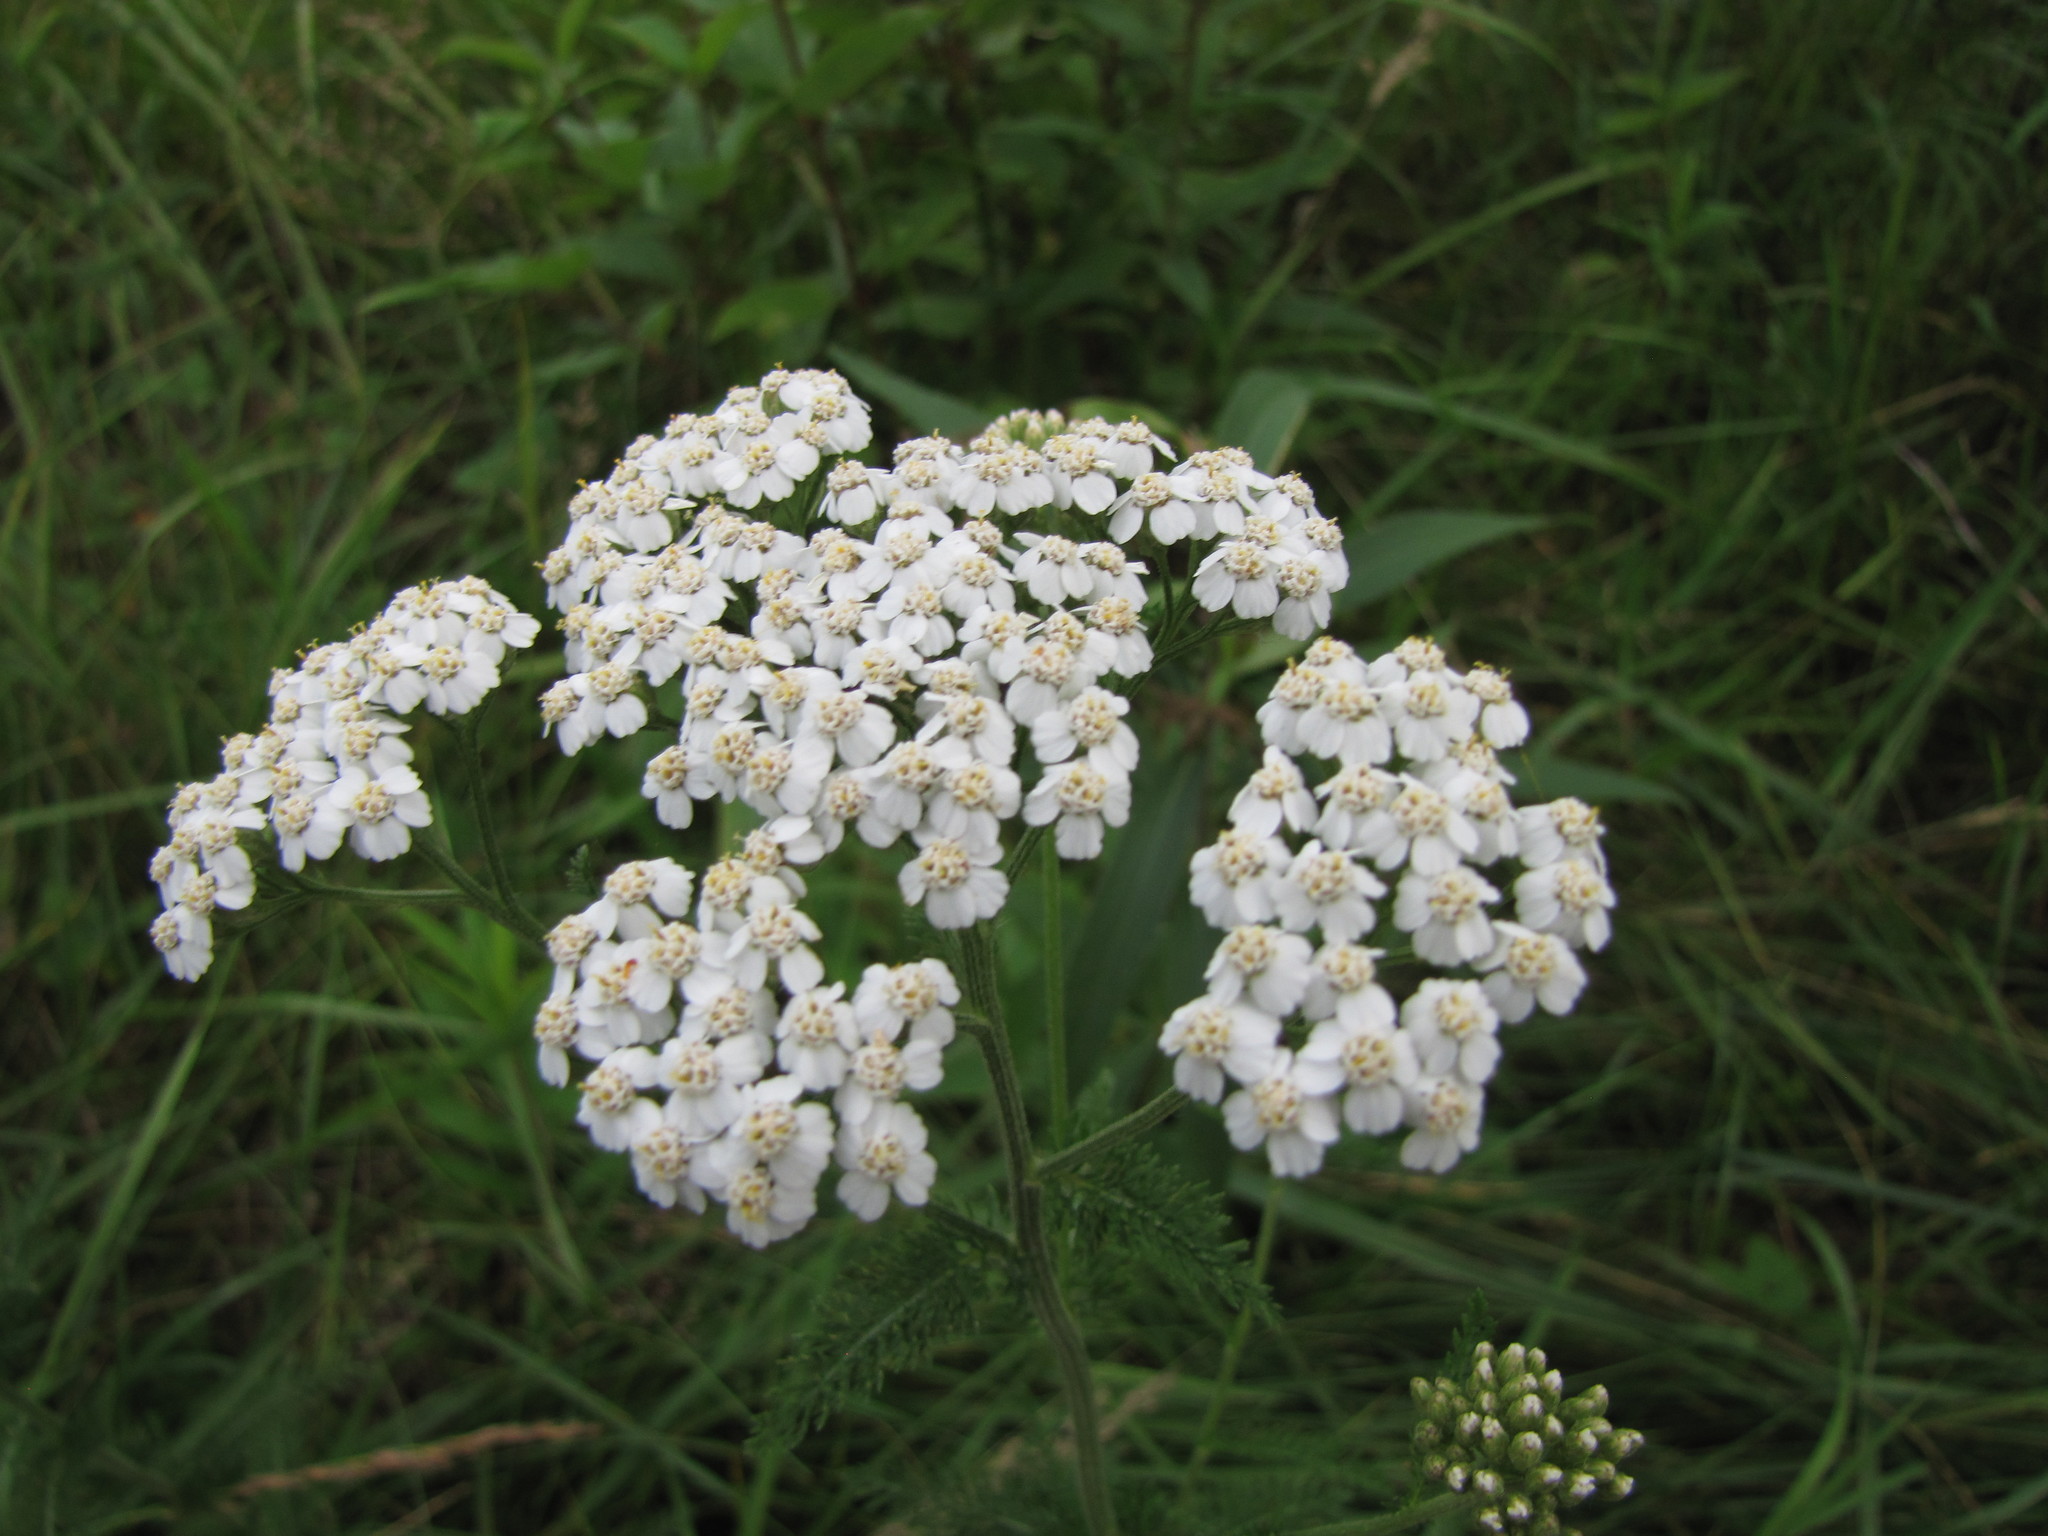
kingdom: Plantae
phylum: Tracheophyta
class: Magnoliopsida
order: Asterales
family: Asteraceae
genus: Achillea
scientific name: Achillea millefolium
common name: Yarrow
